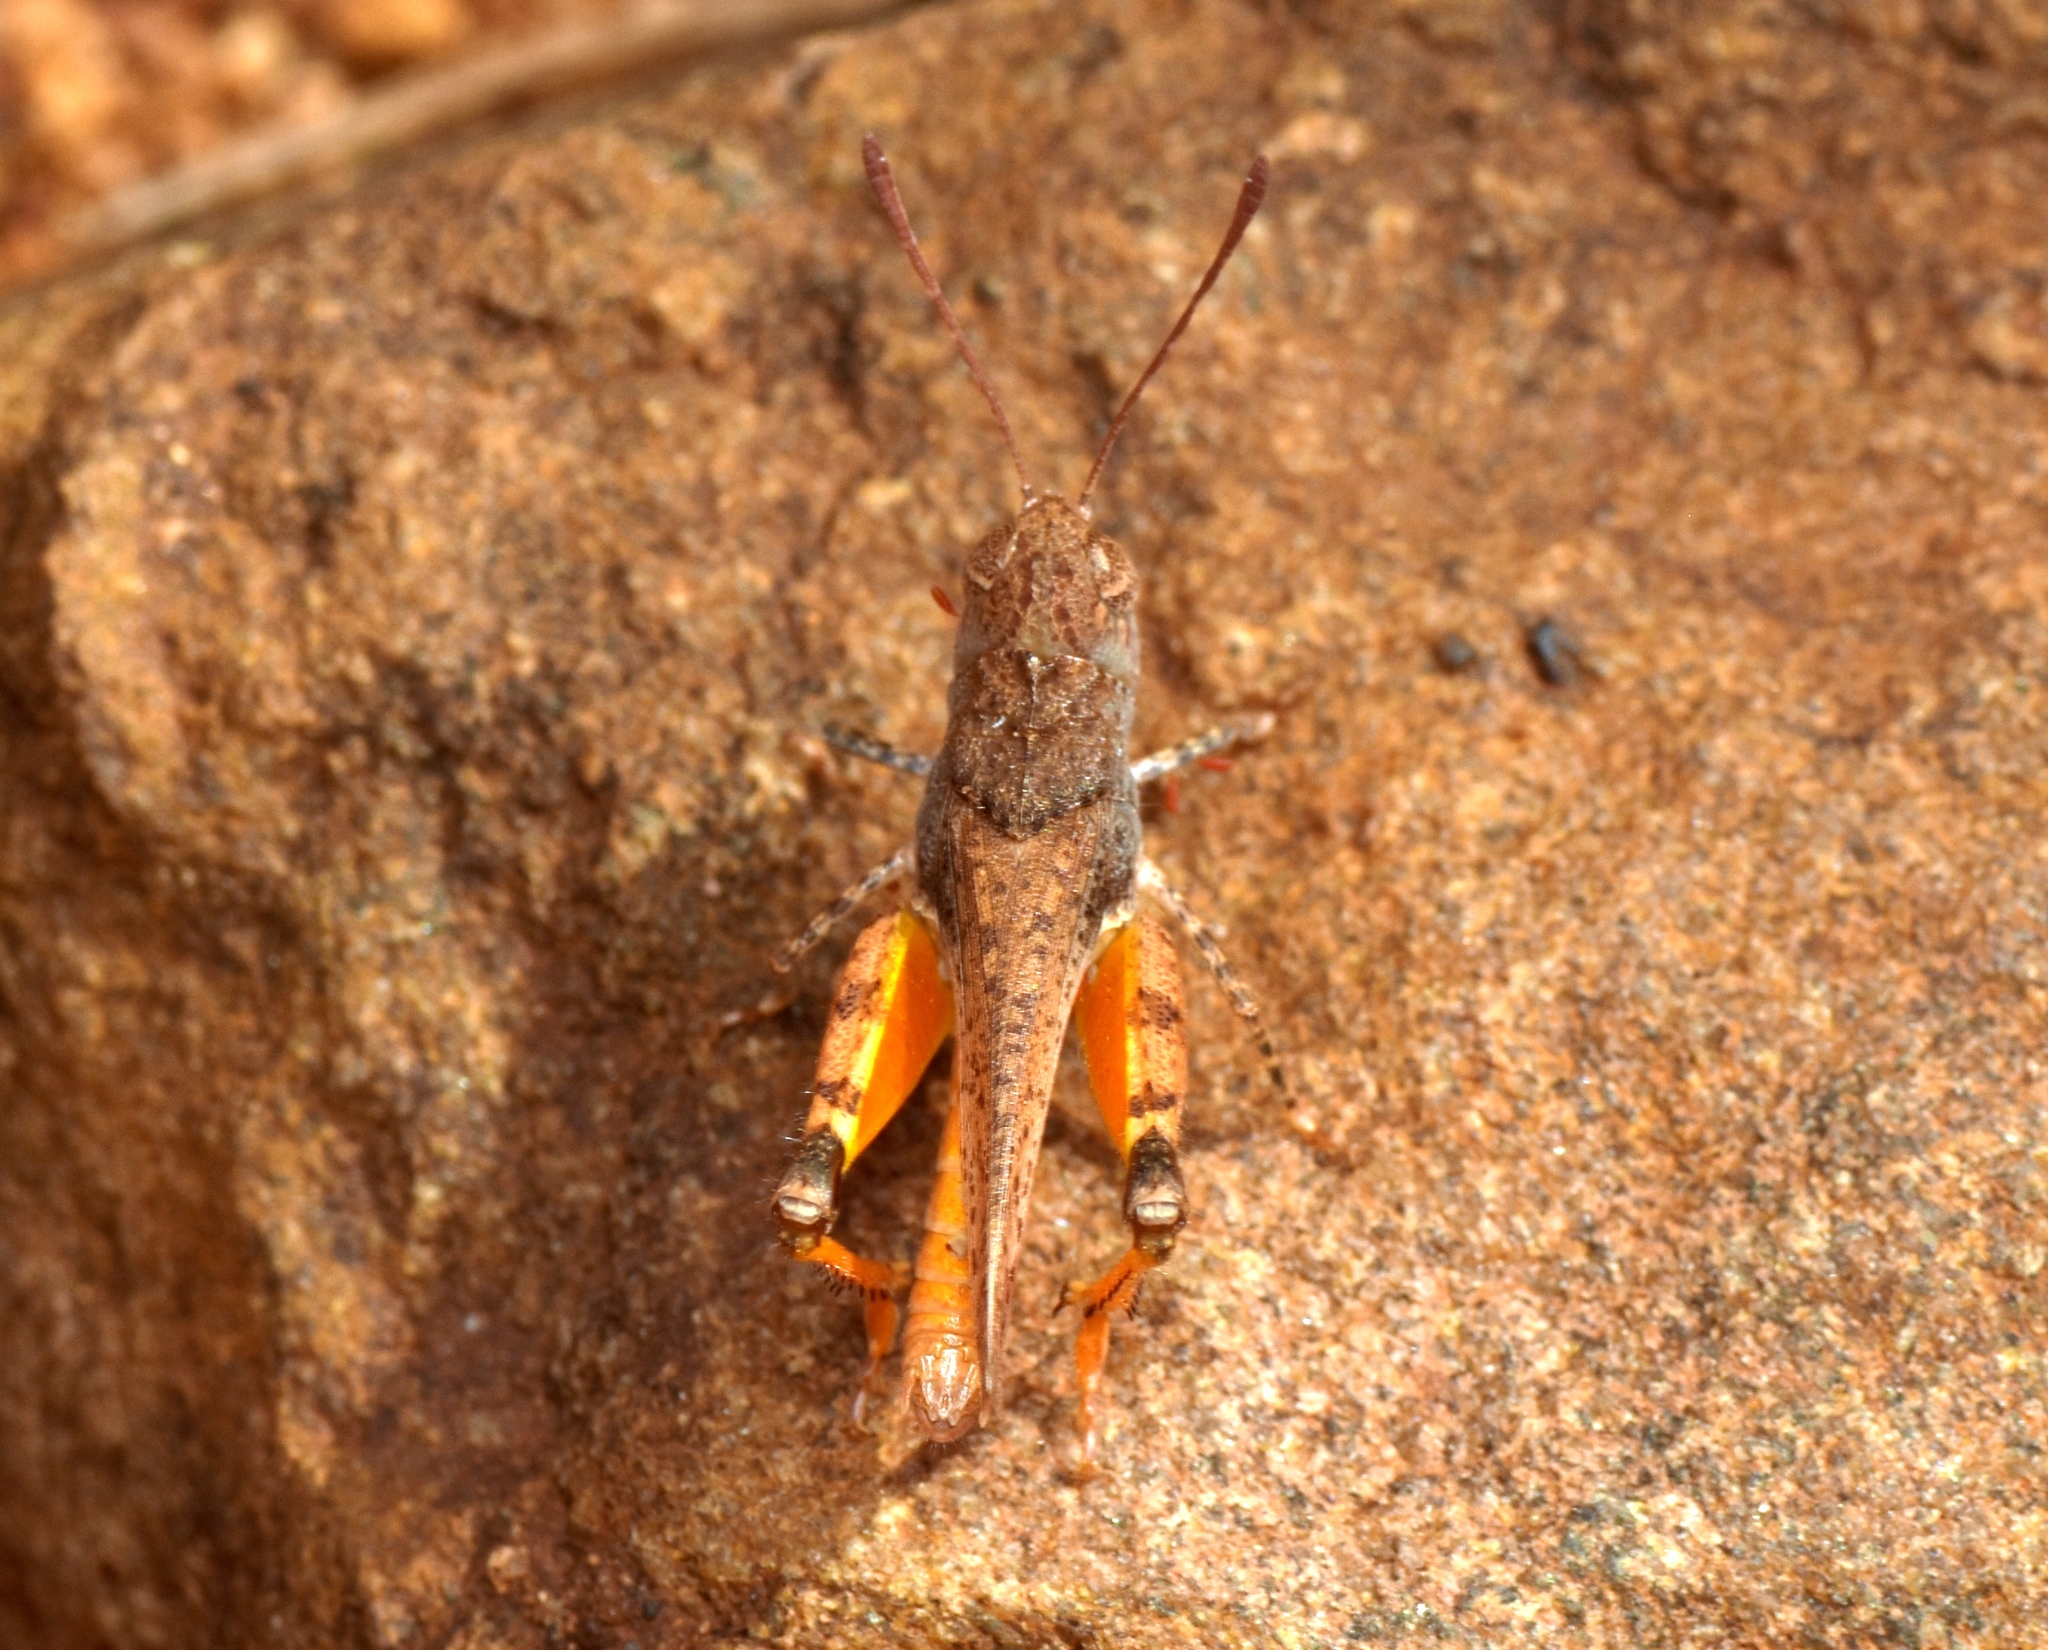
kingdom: Animalia
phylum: Arthropoda
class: Insecta
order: Orthoptera
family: Acrididae
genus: Macrazelota
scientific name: Macrazelota cervina
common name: Common pig-head
